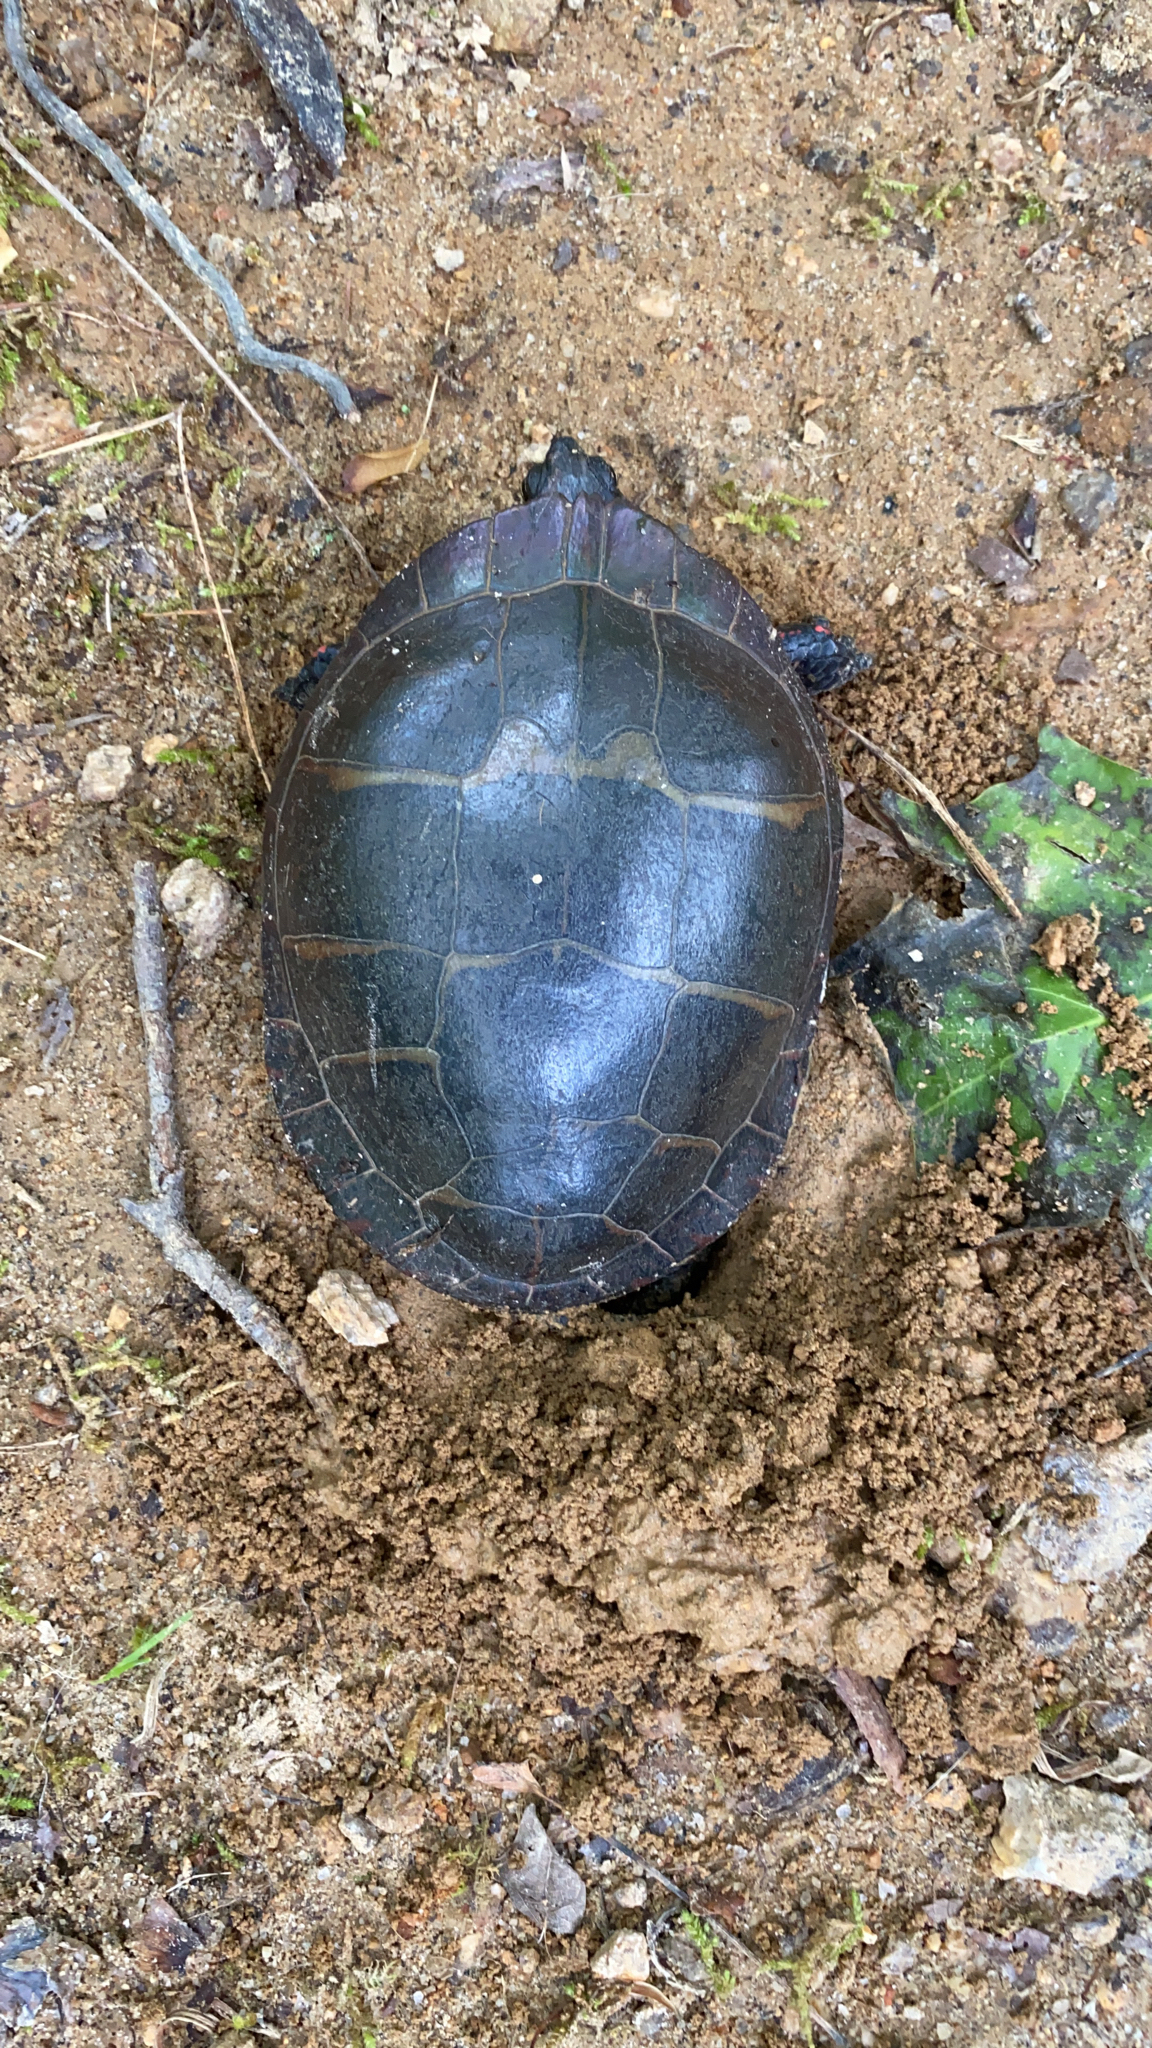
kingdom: Animalia
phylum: Chordata
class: Testudines
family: Emydidae
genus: Chrysemys
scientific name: Chrysemys picta
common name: Painted turtle
